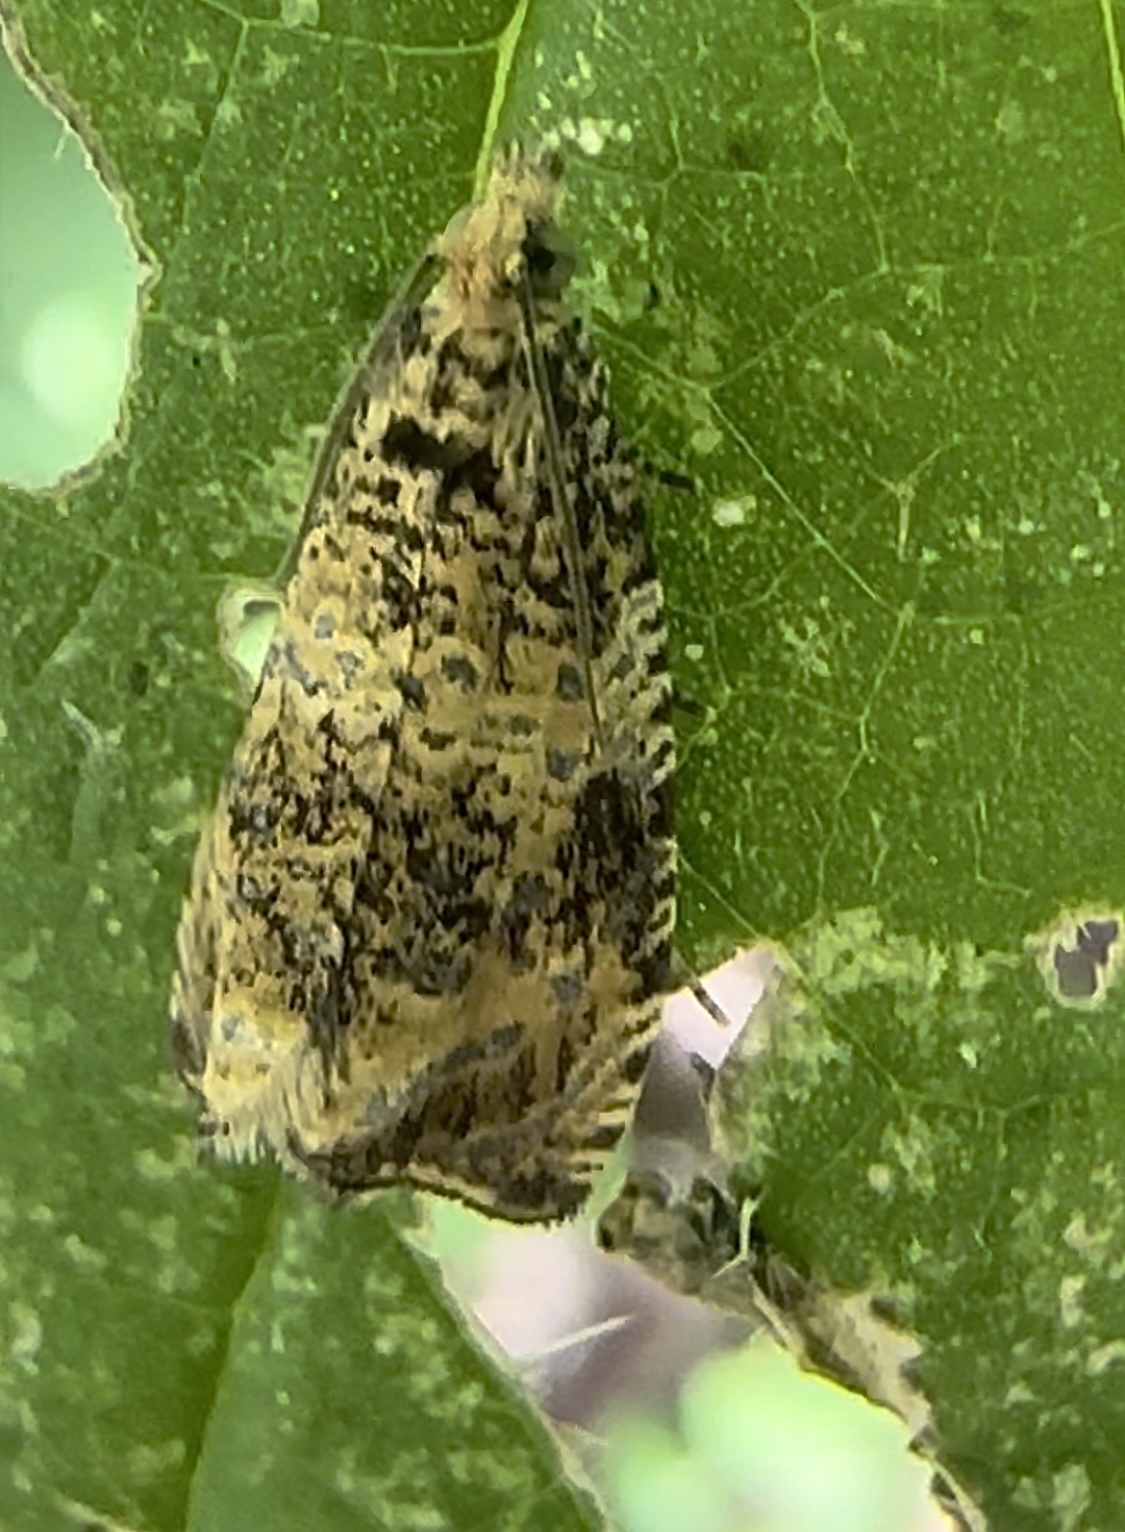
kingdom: Animalia
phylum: Arthropoda
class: Insecta
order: Lepidoptera
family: Tortricidae
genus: Syricoris
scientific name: Syricoris lacunana
